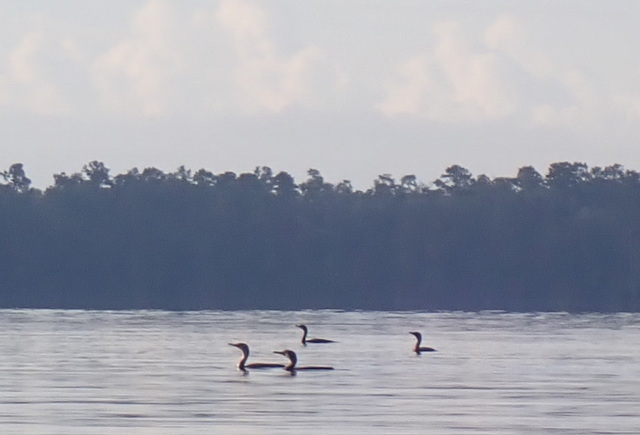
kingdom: Animalia
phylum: Chordata
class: Aves
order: Suliformes
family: Phalacrocoracidae
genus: Phalacrocorax
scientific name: Phalacrocorax auritus
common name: Double-crested cormorant
